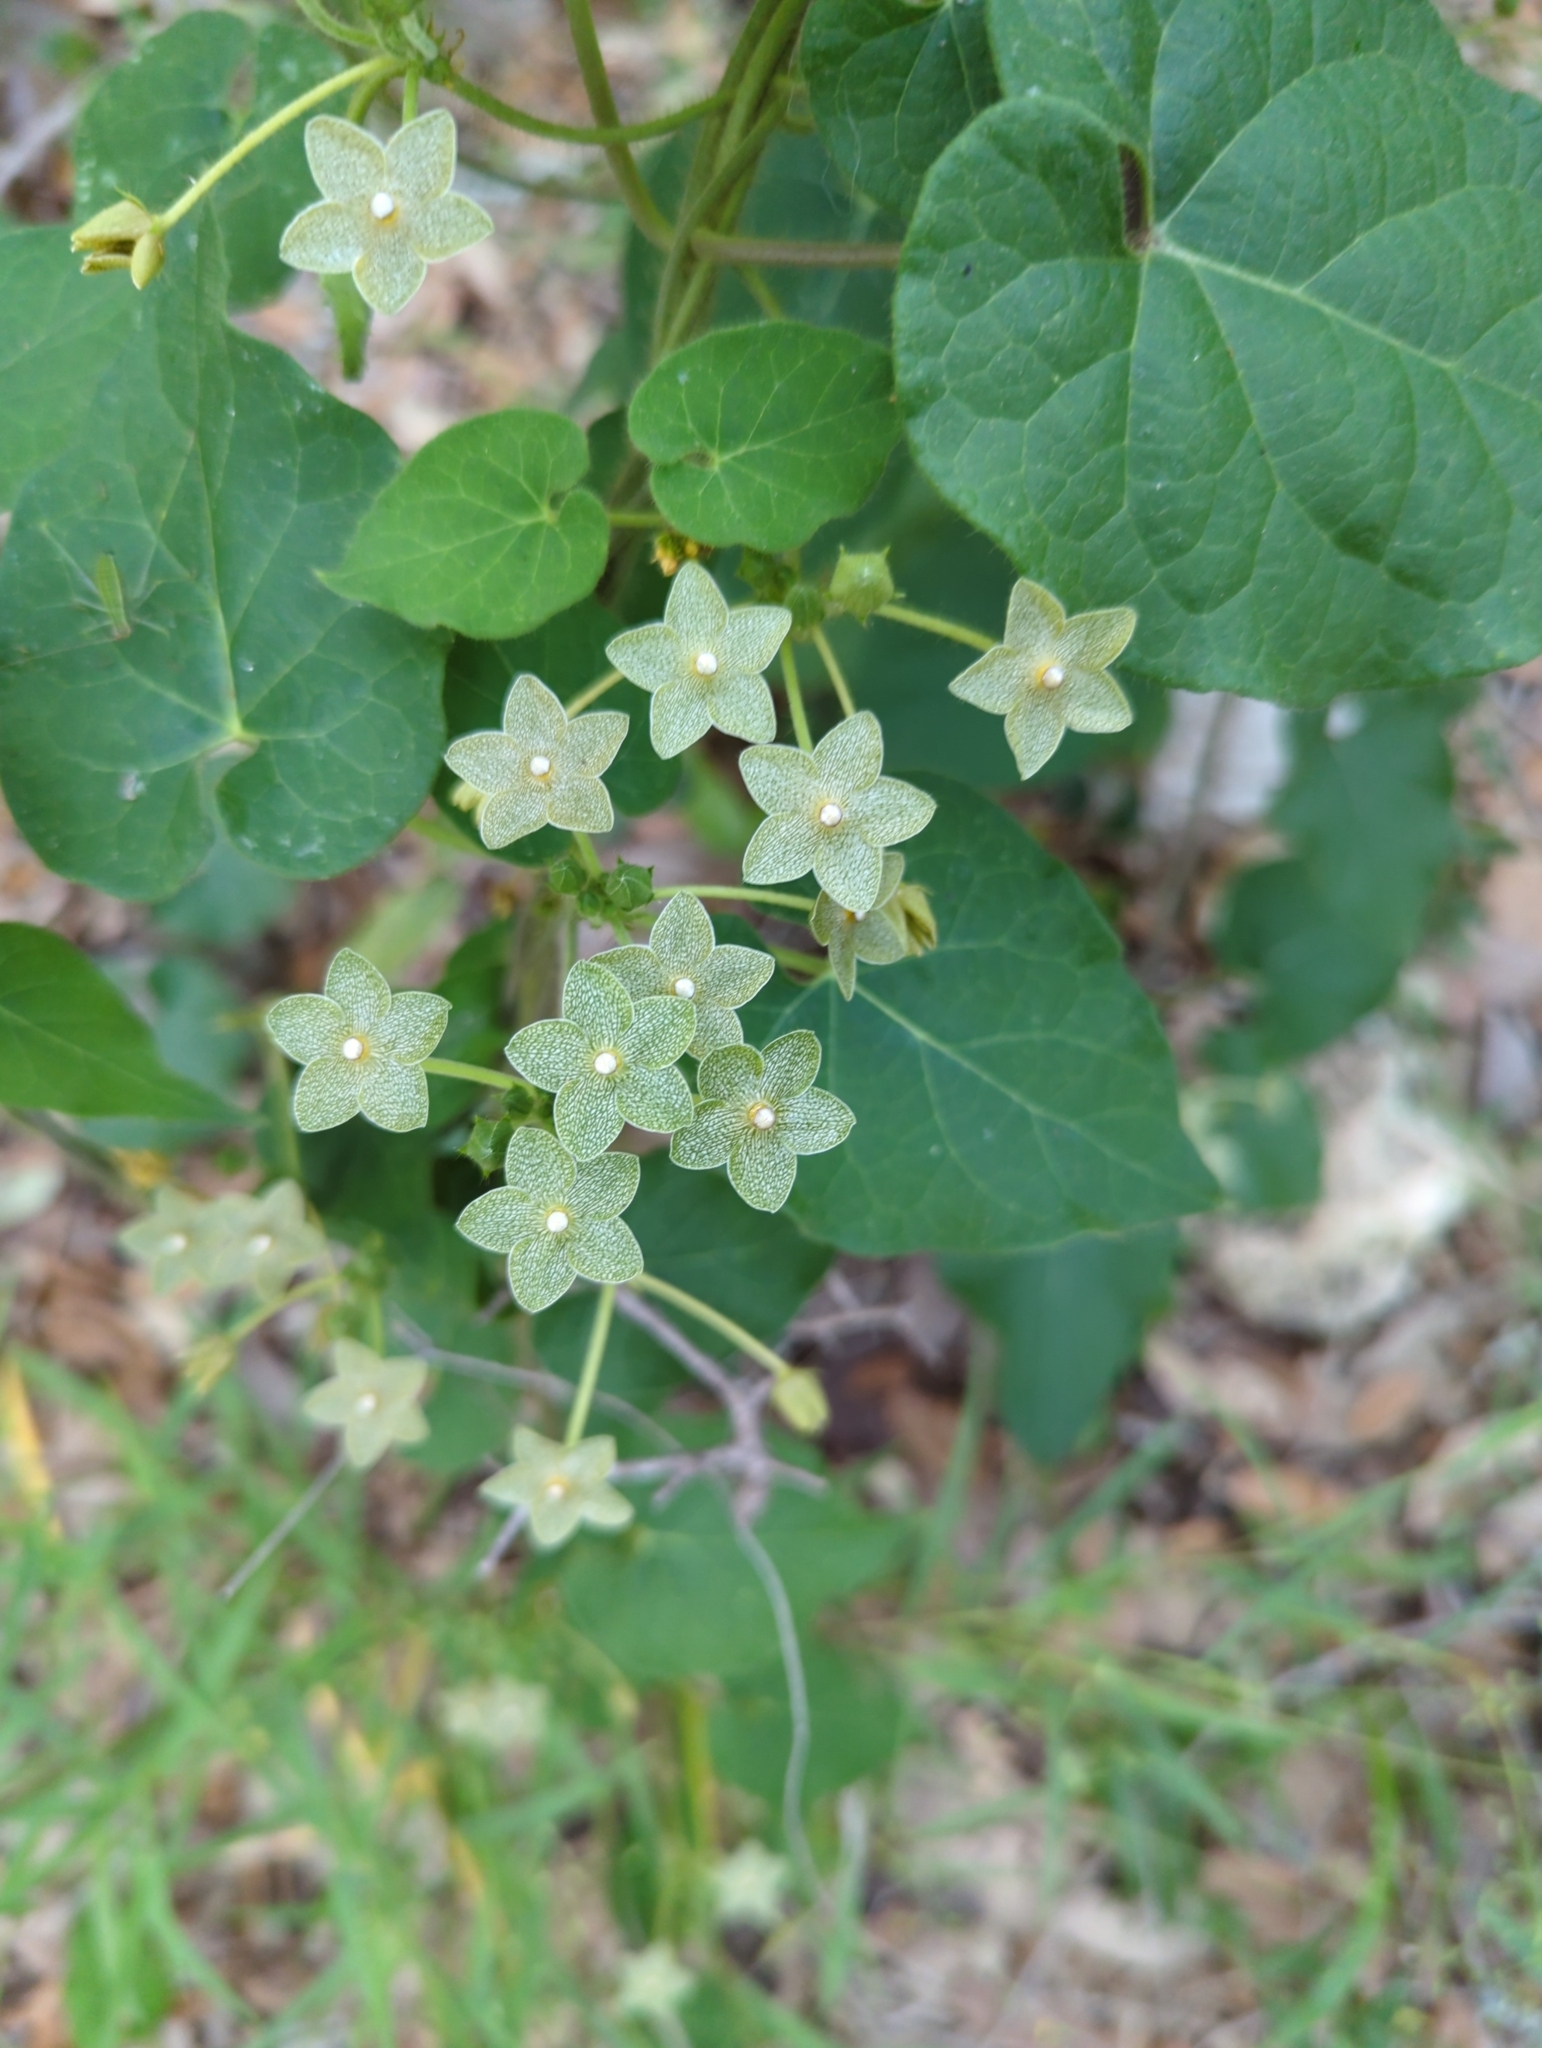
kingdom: Plantae
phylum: Tracheophyta
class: Magnoliopsida
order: Gentianales
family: Apocynaceae
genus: Dictyanthus
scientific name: Dictyanthus reticulatus
